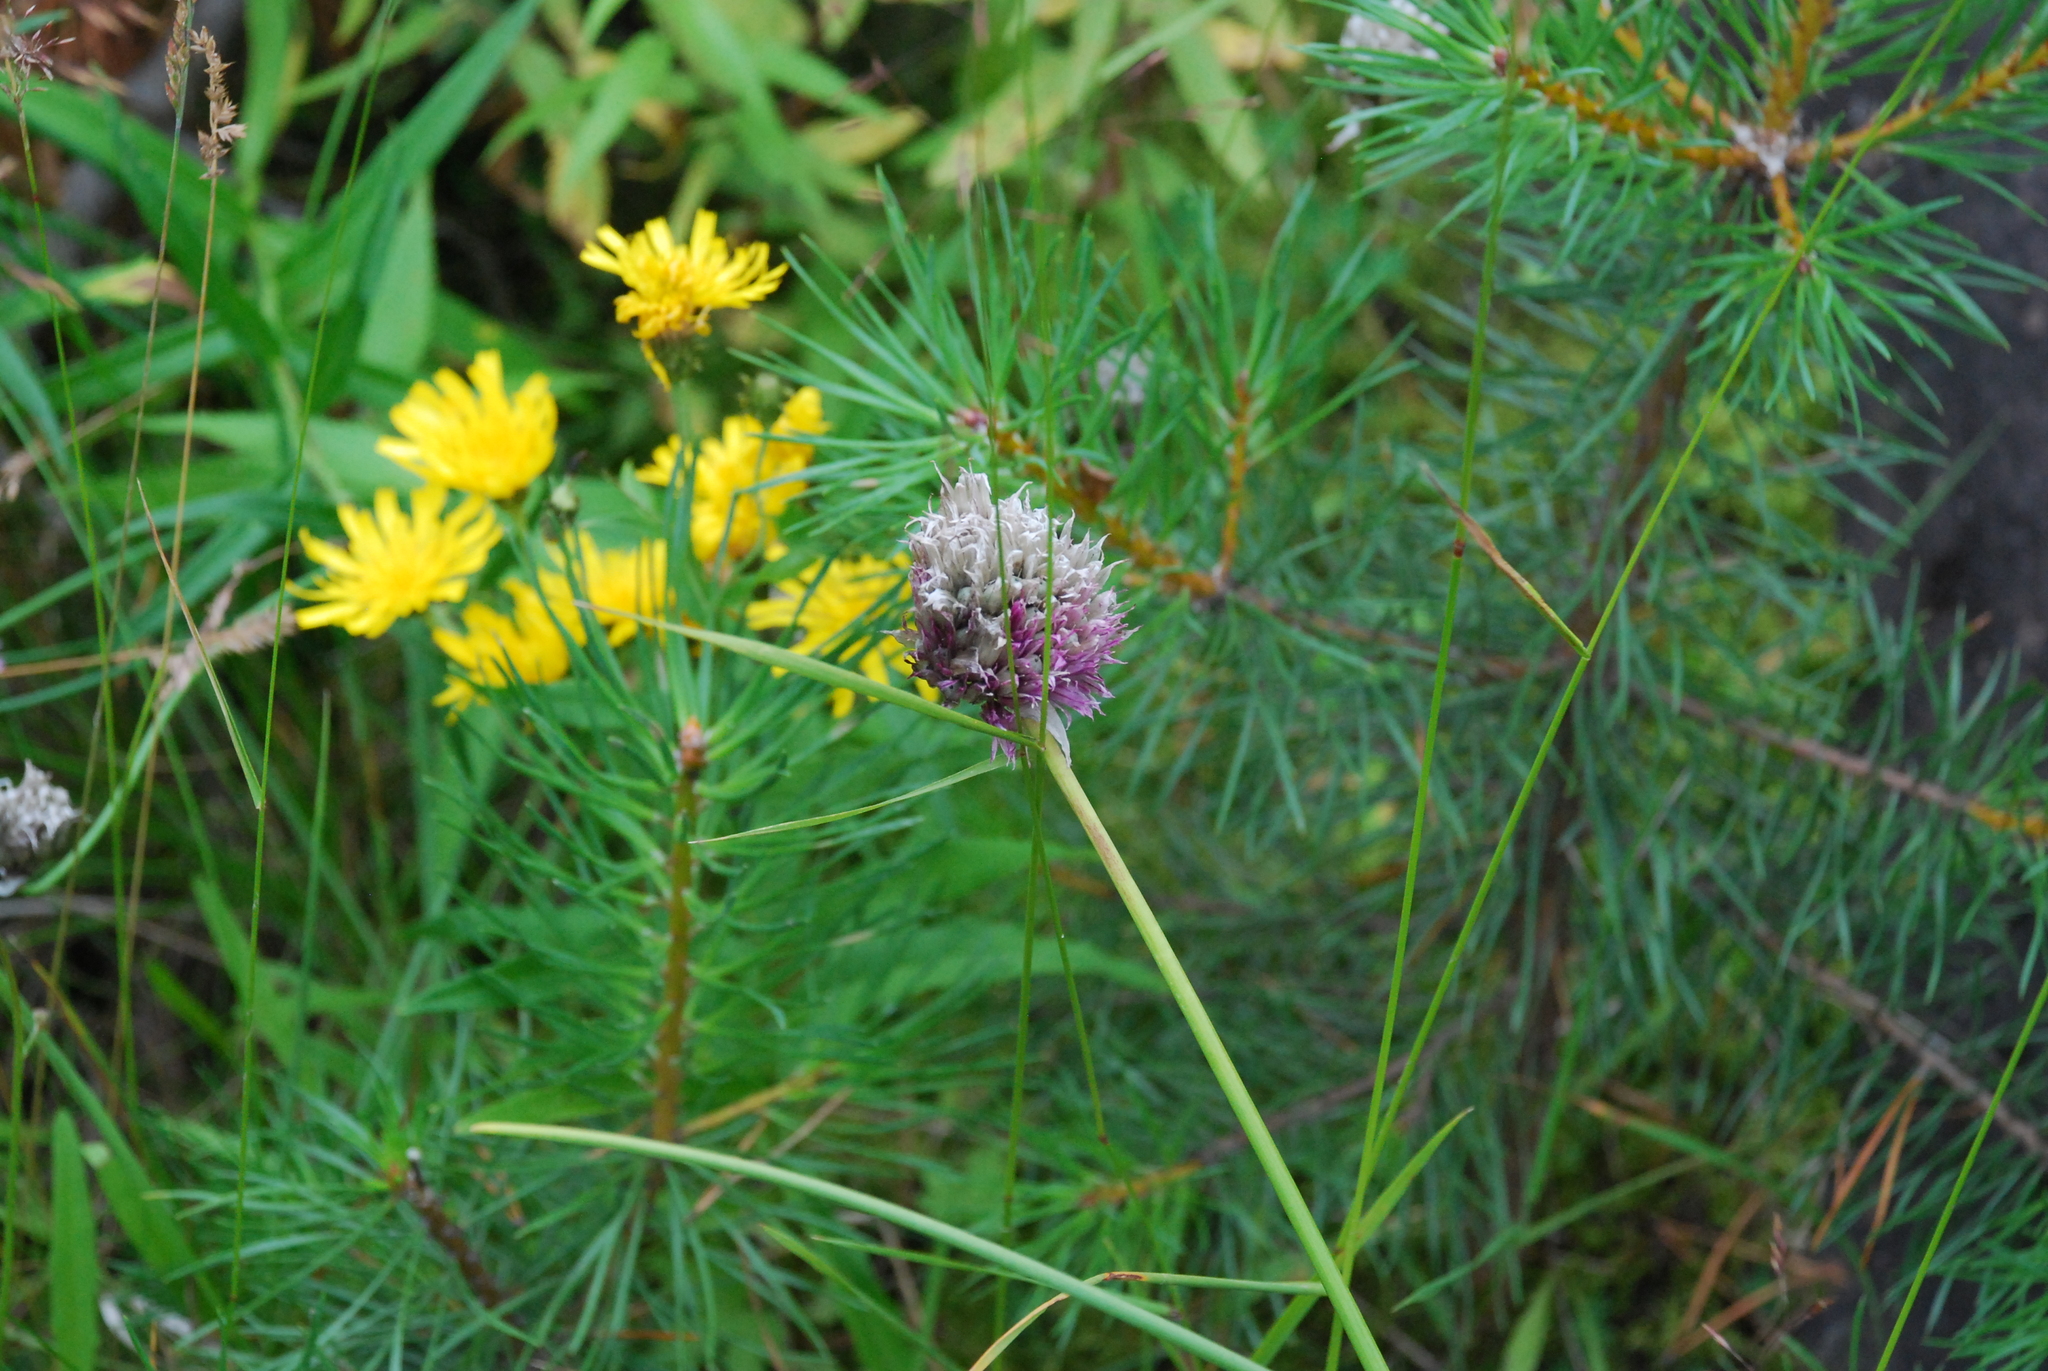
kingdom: Plantae
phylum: Tracheophyta
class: Liliopsida
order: Asparagales
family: Amaryllidaceae
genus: Allium
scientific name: Allium schoenoprasum
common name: Chives
